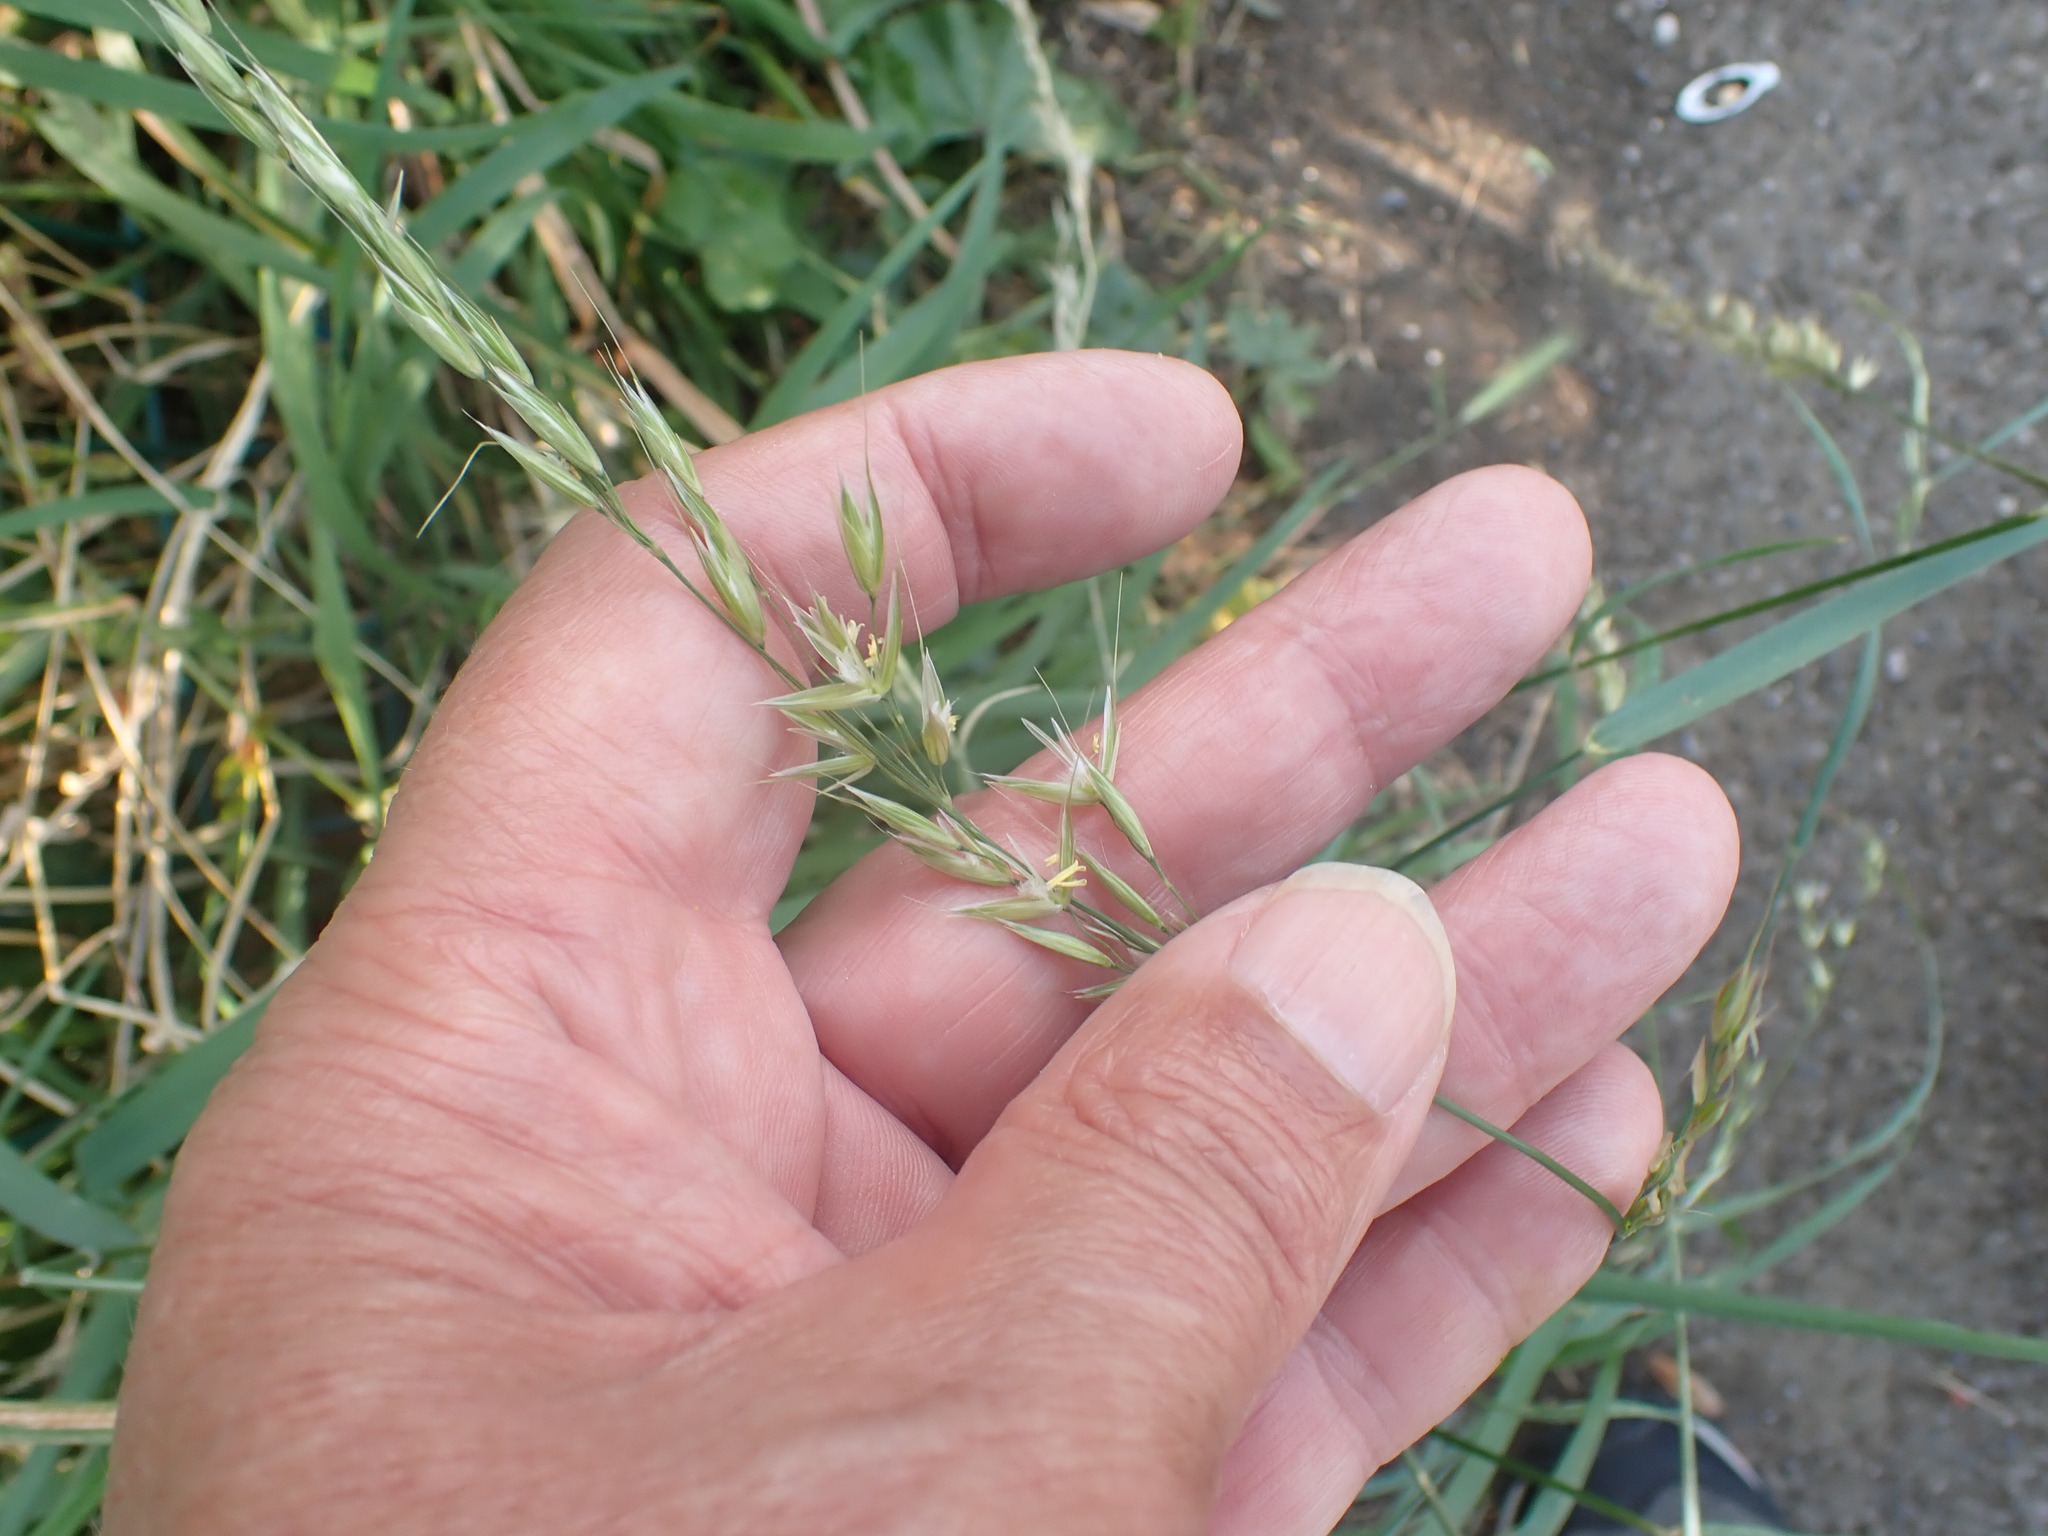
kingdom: Plantae
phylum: Tracheophyta
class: Liliopsida
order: Poales
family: Poaceae
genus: Arrhenatherum
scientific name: Arrhenatherum elatius
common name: Tall oatgrass
